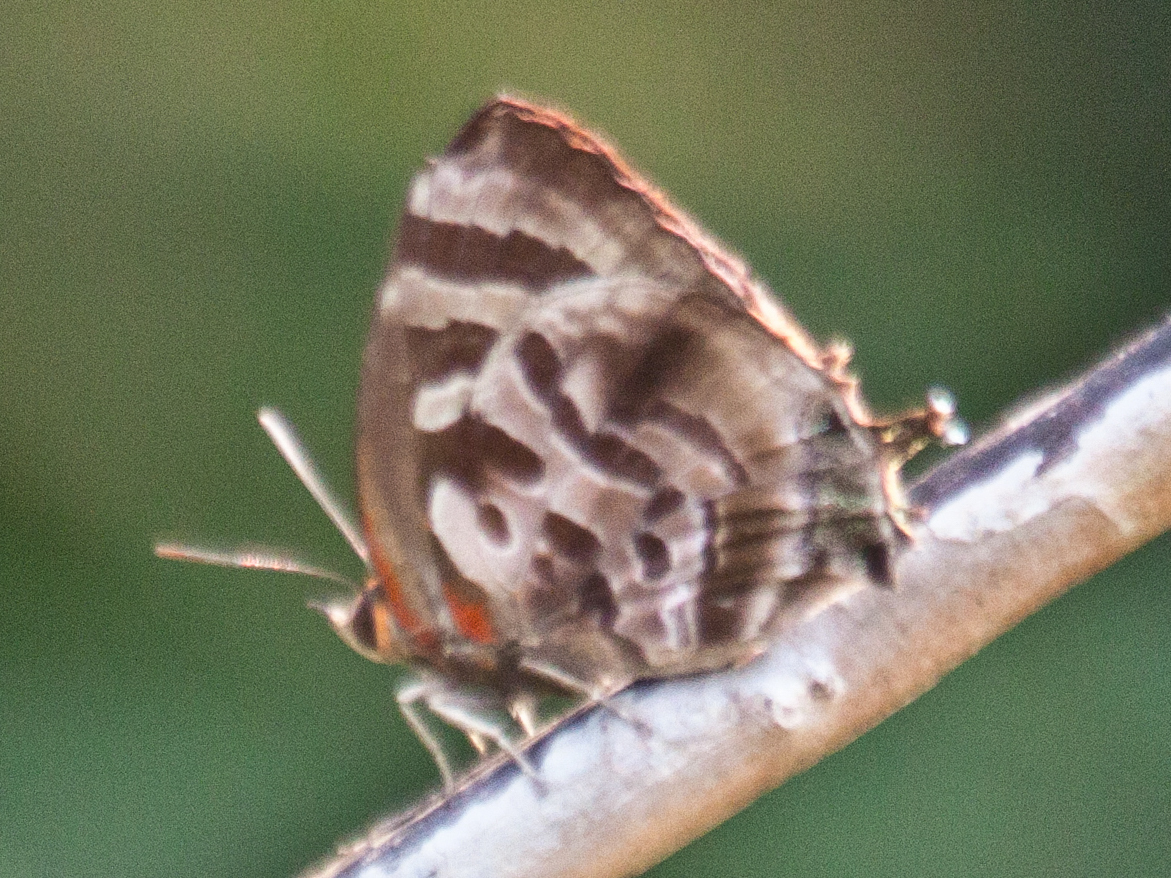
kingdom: Animalia
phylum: Arthropoda
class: Insecta
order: Lepidoptera
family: Lycaenidae
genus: Flos
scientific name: Flos
